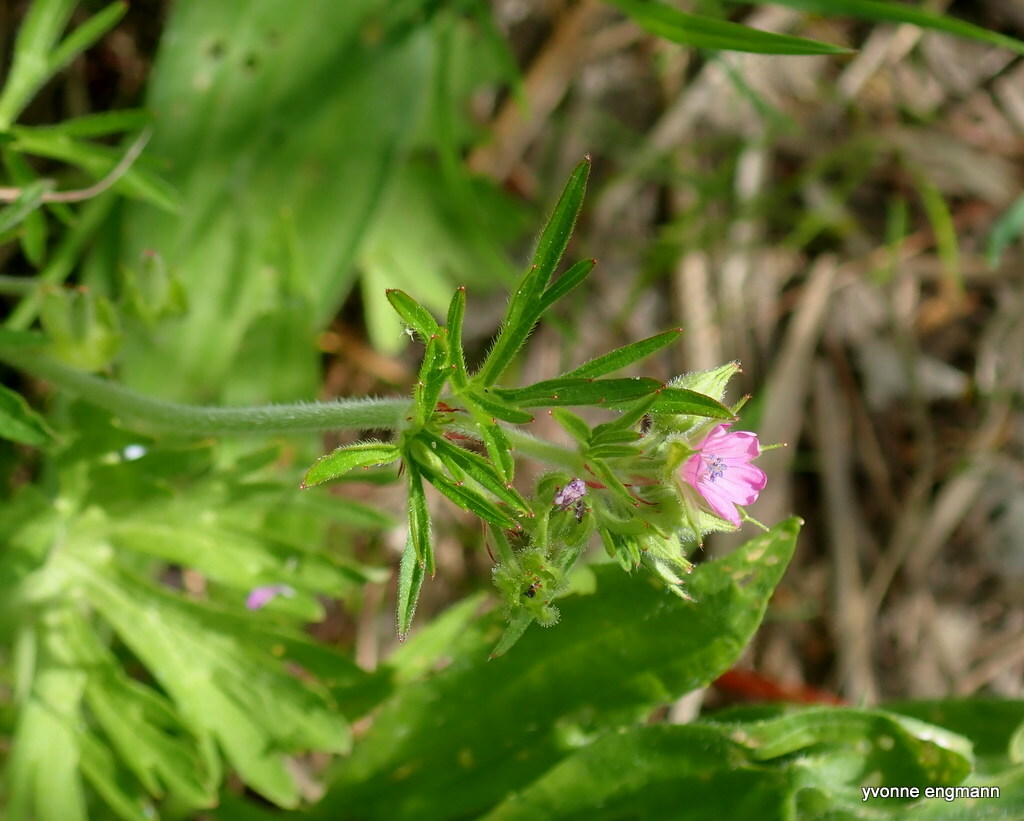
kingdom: Plantae
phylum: Tracheophyta
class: Magnoliopsida
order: Geraniales
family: Geraniaceae
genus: Geranium
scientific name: Geranium dissectum
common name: Cut-leaved crane's-bill
